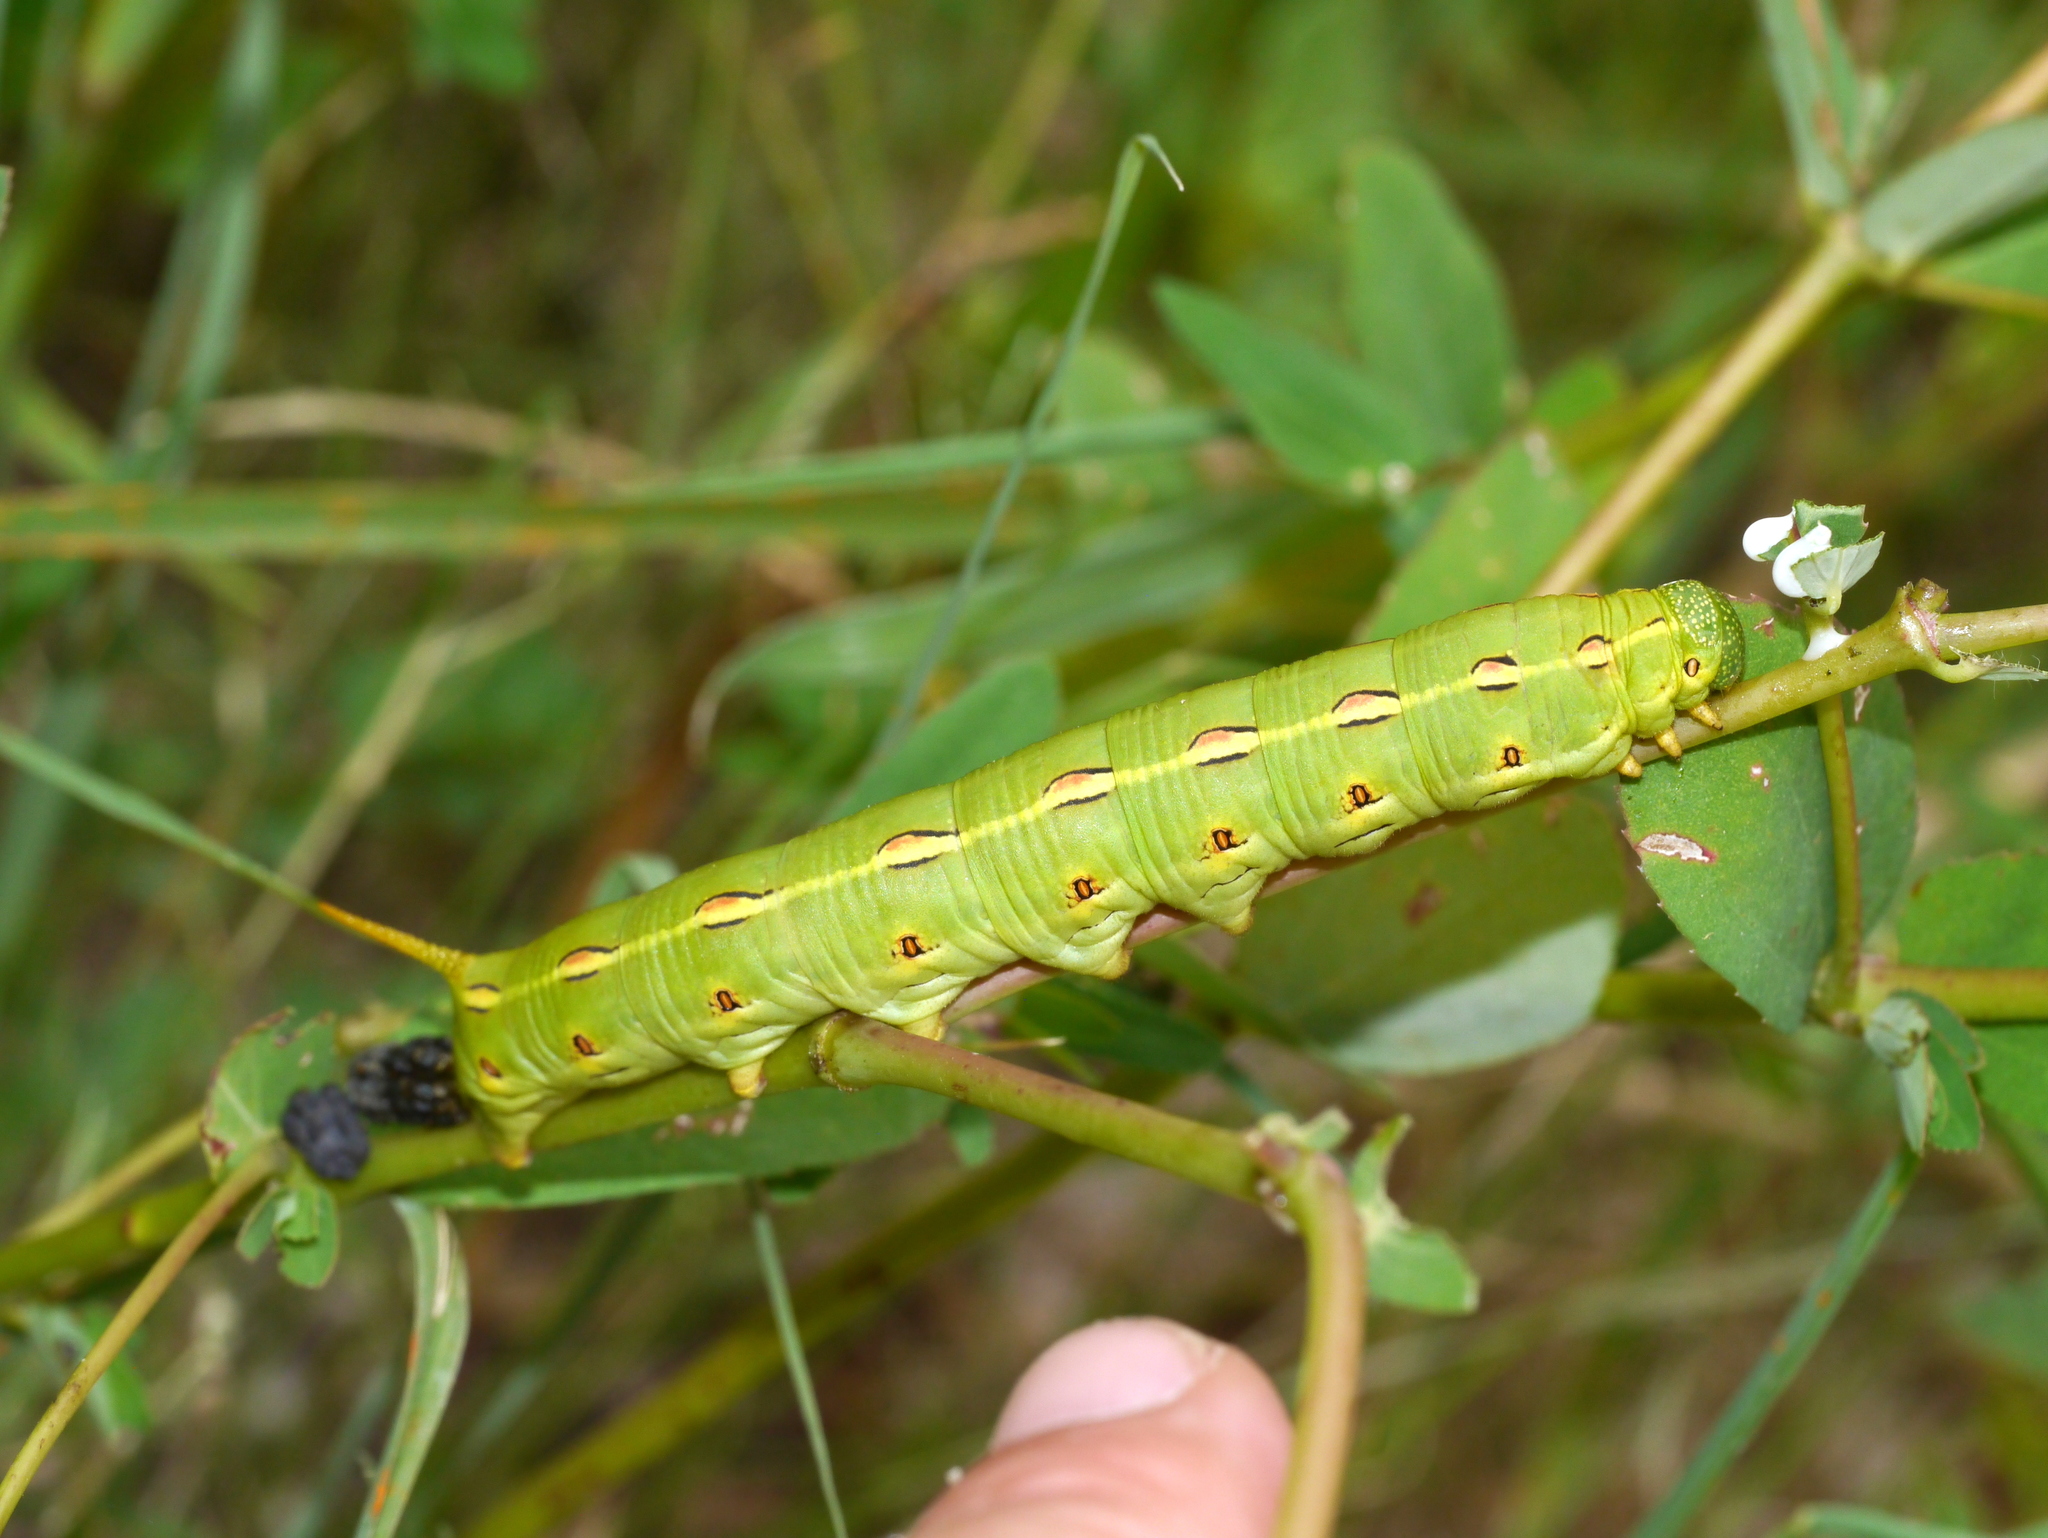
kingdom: Animalia
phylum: Arthropoda
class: Insecta
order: Lepidoptera
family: Sphingidae
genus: Hyles
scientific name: Hyles lineata
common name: White-lined sphinx
